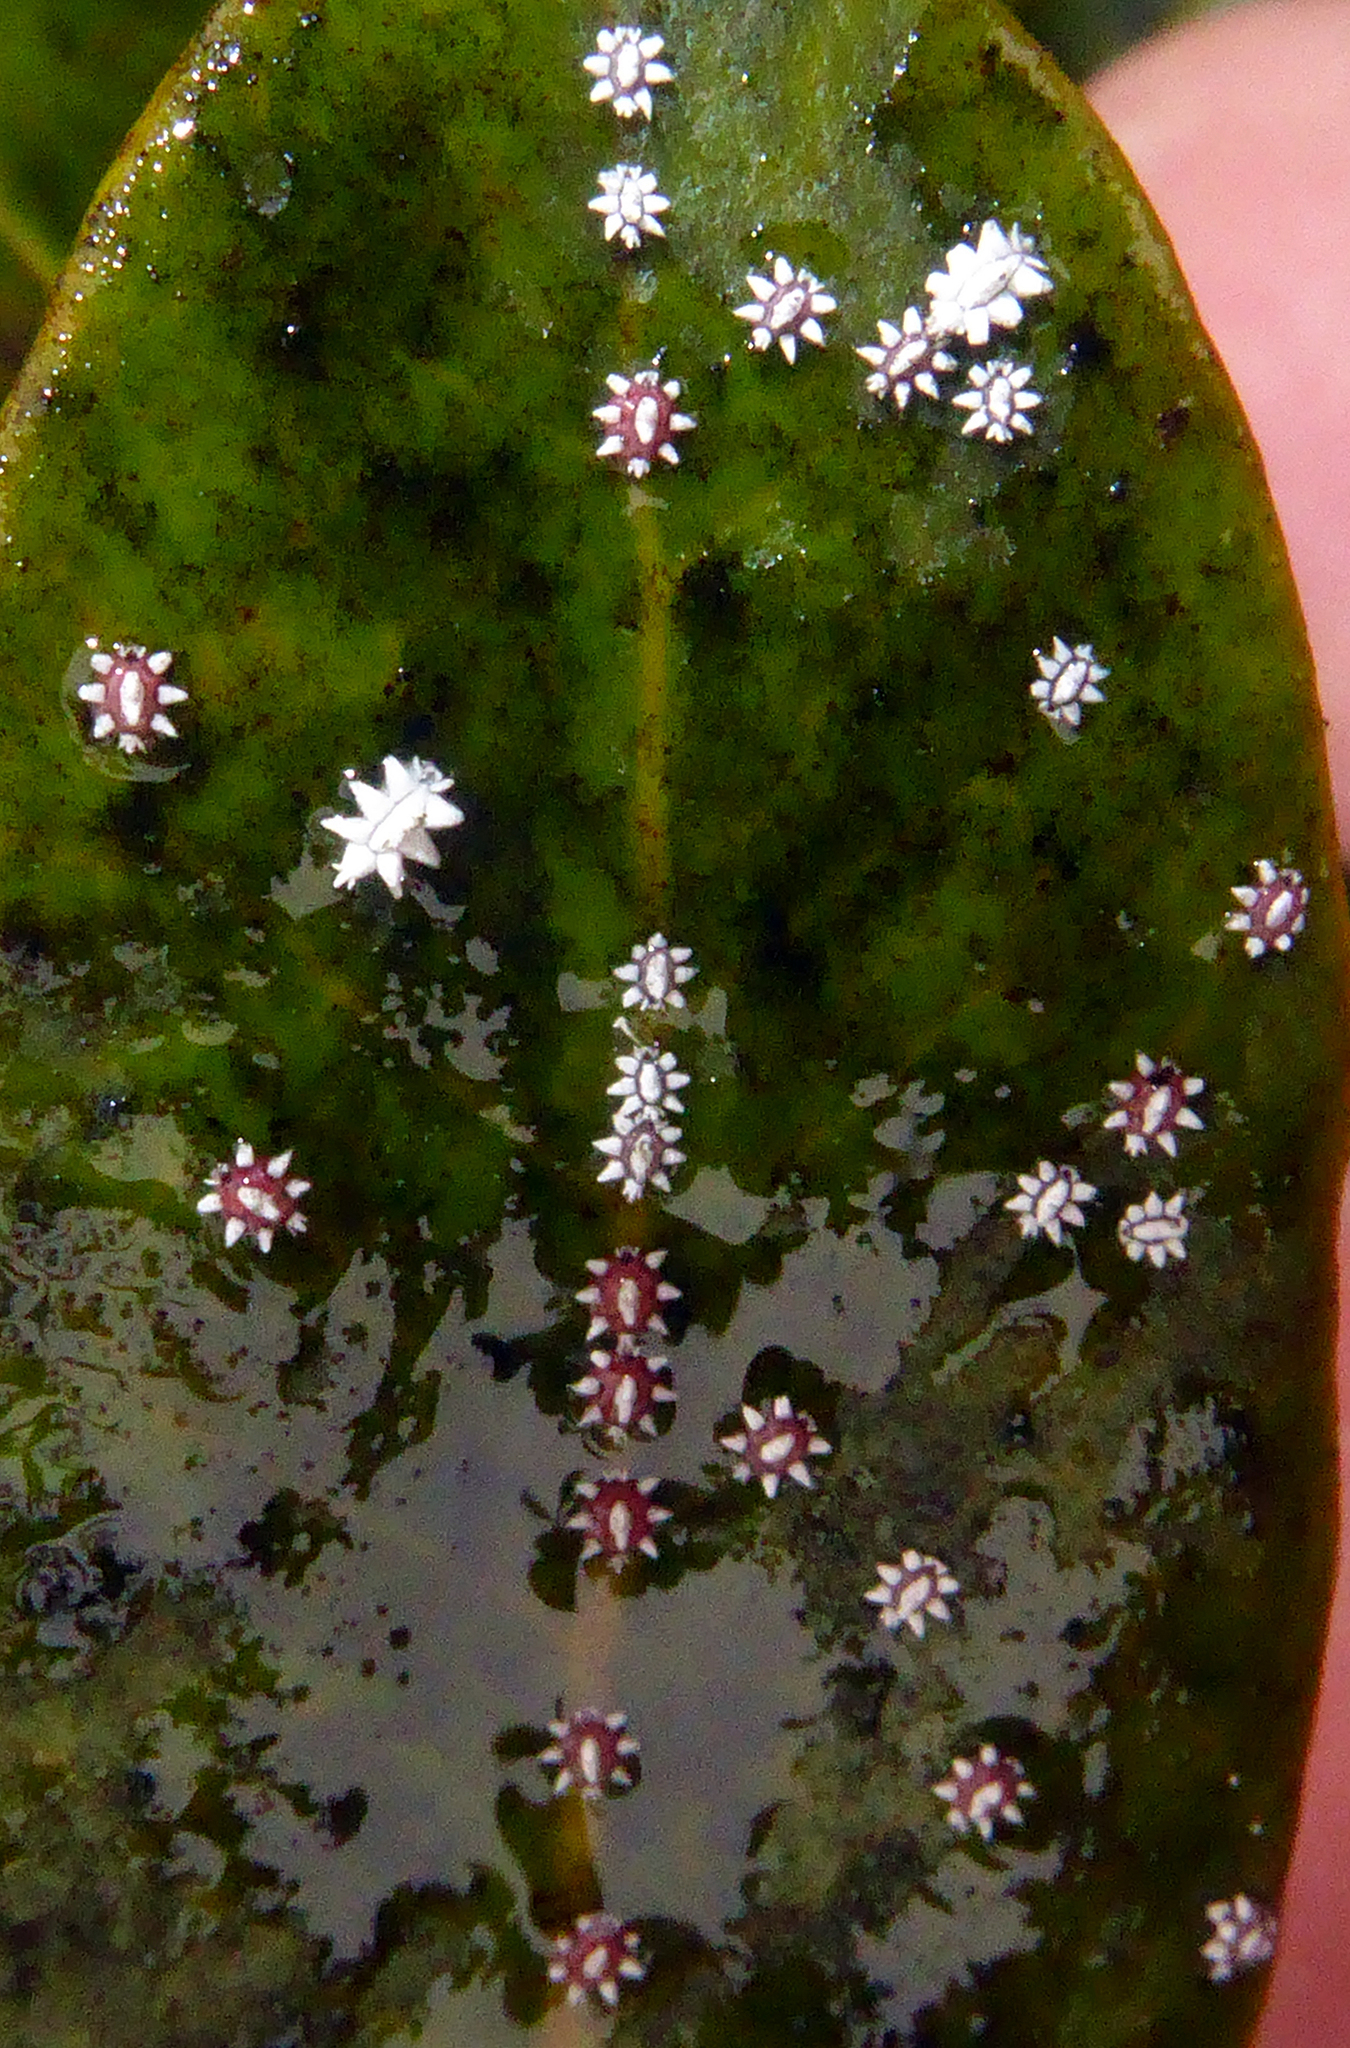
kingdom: Animalia
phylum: Arthropoda
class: Insecta
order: Hemiptera
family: Coccidae
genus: Ceroplastes
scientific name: Ceroplastes sinensis
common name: Hard wax scale
